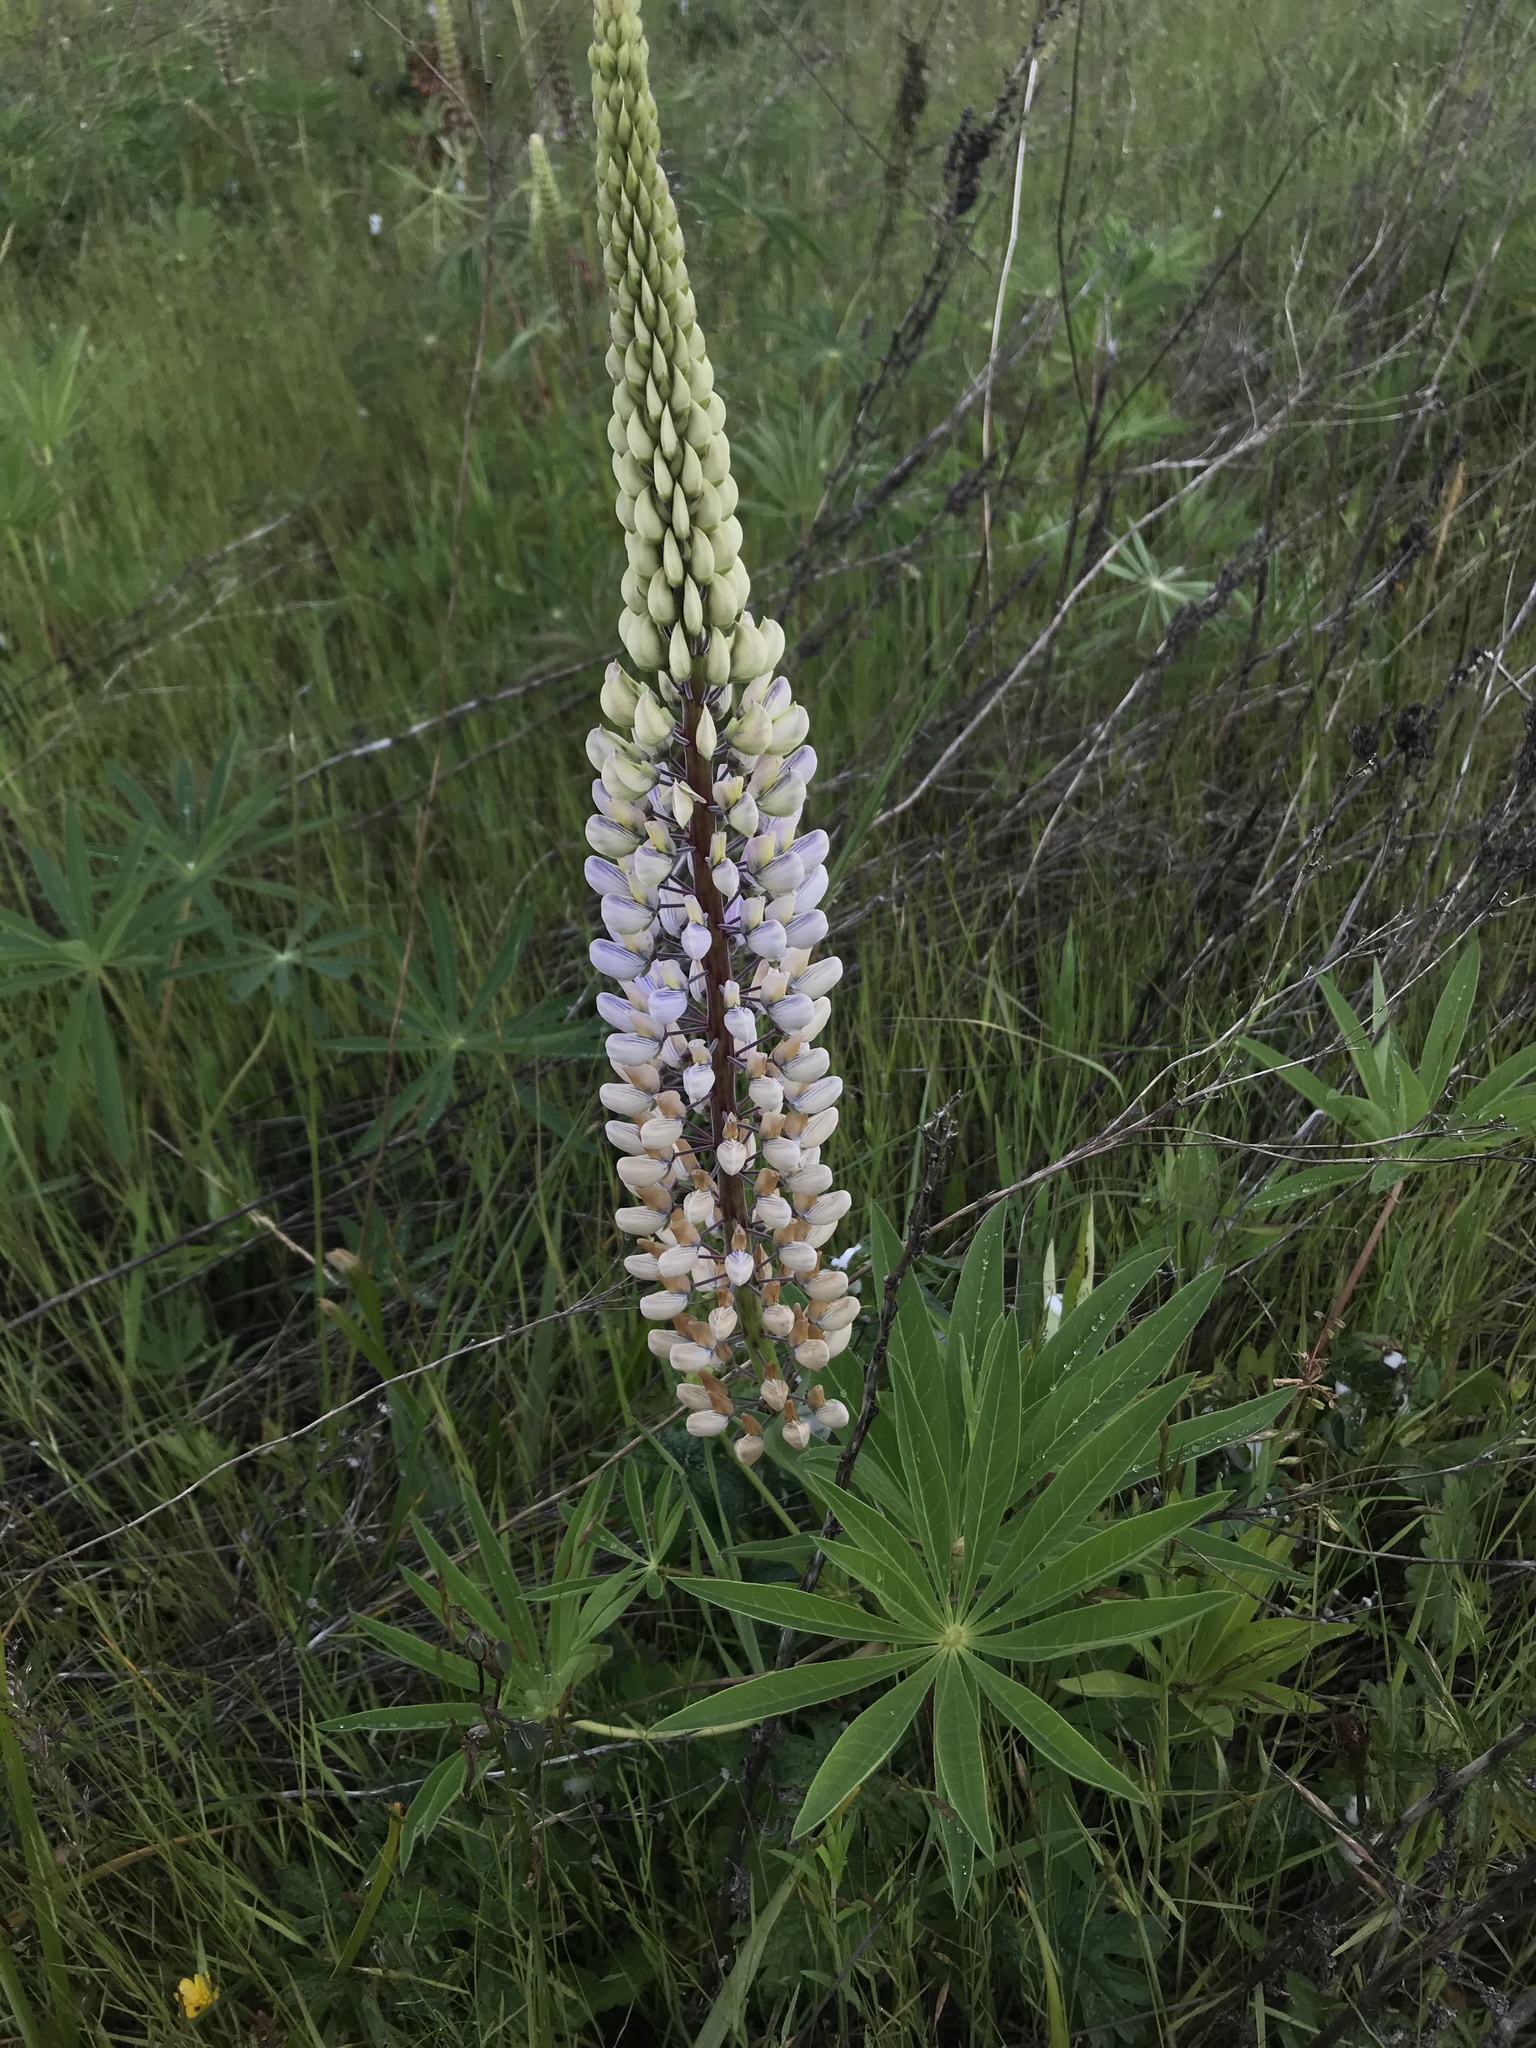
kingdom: Plantae
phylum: Tracheophyta
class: Magnoliopsida
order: Fabales
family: Fabaceae
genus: Lupinus
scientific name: Lupinus polyphyllus
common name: Garden lupin
